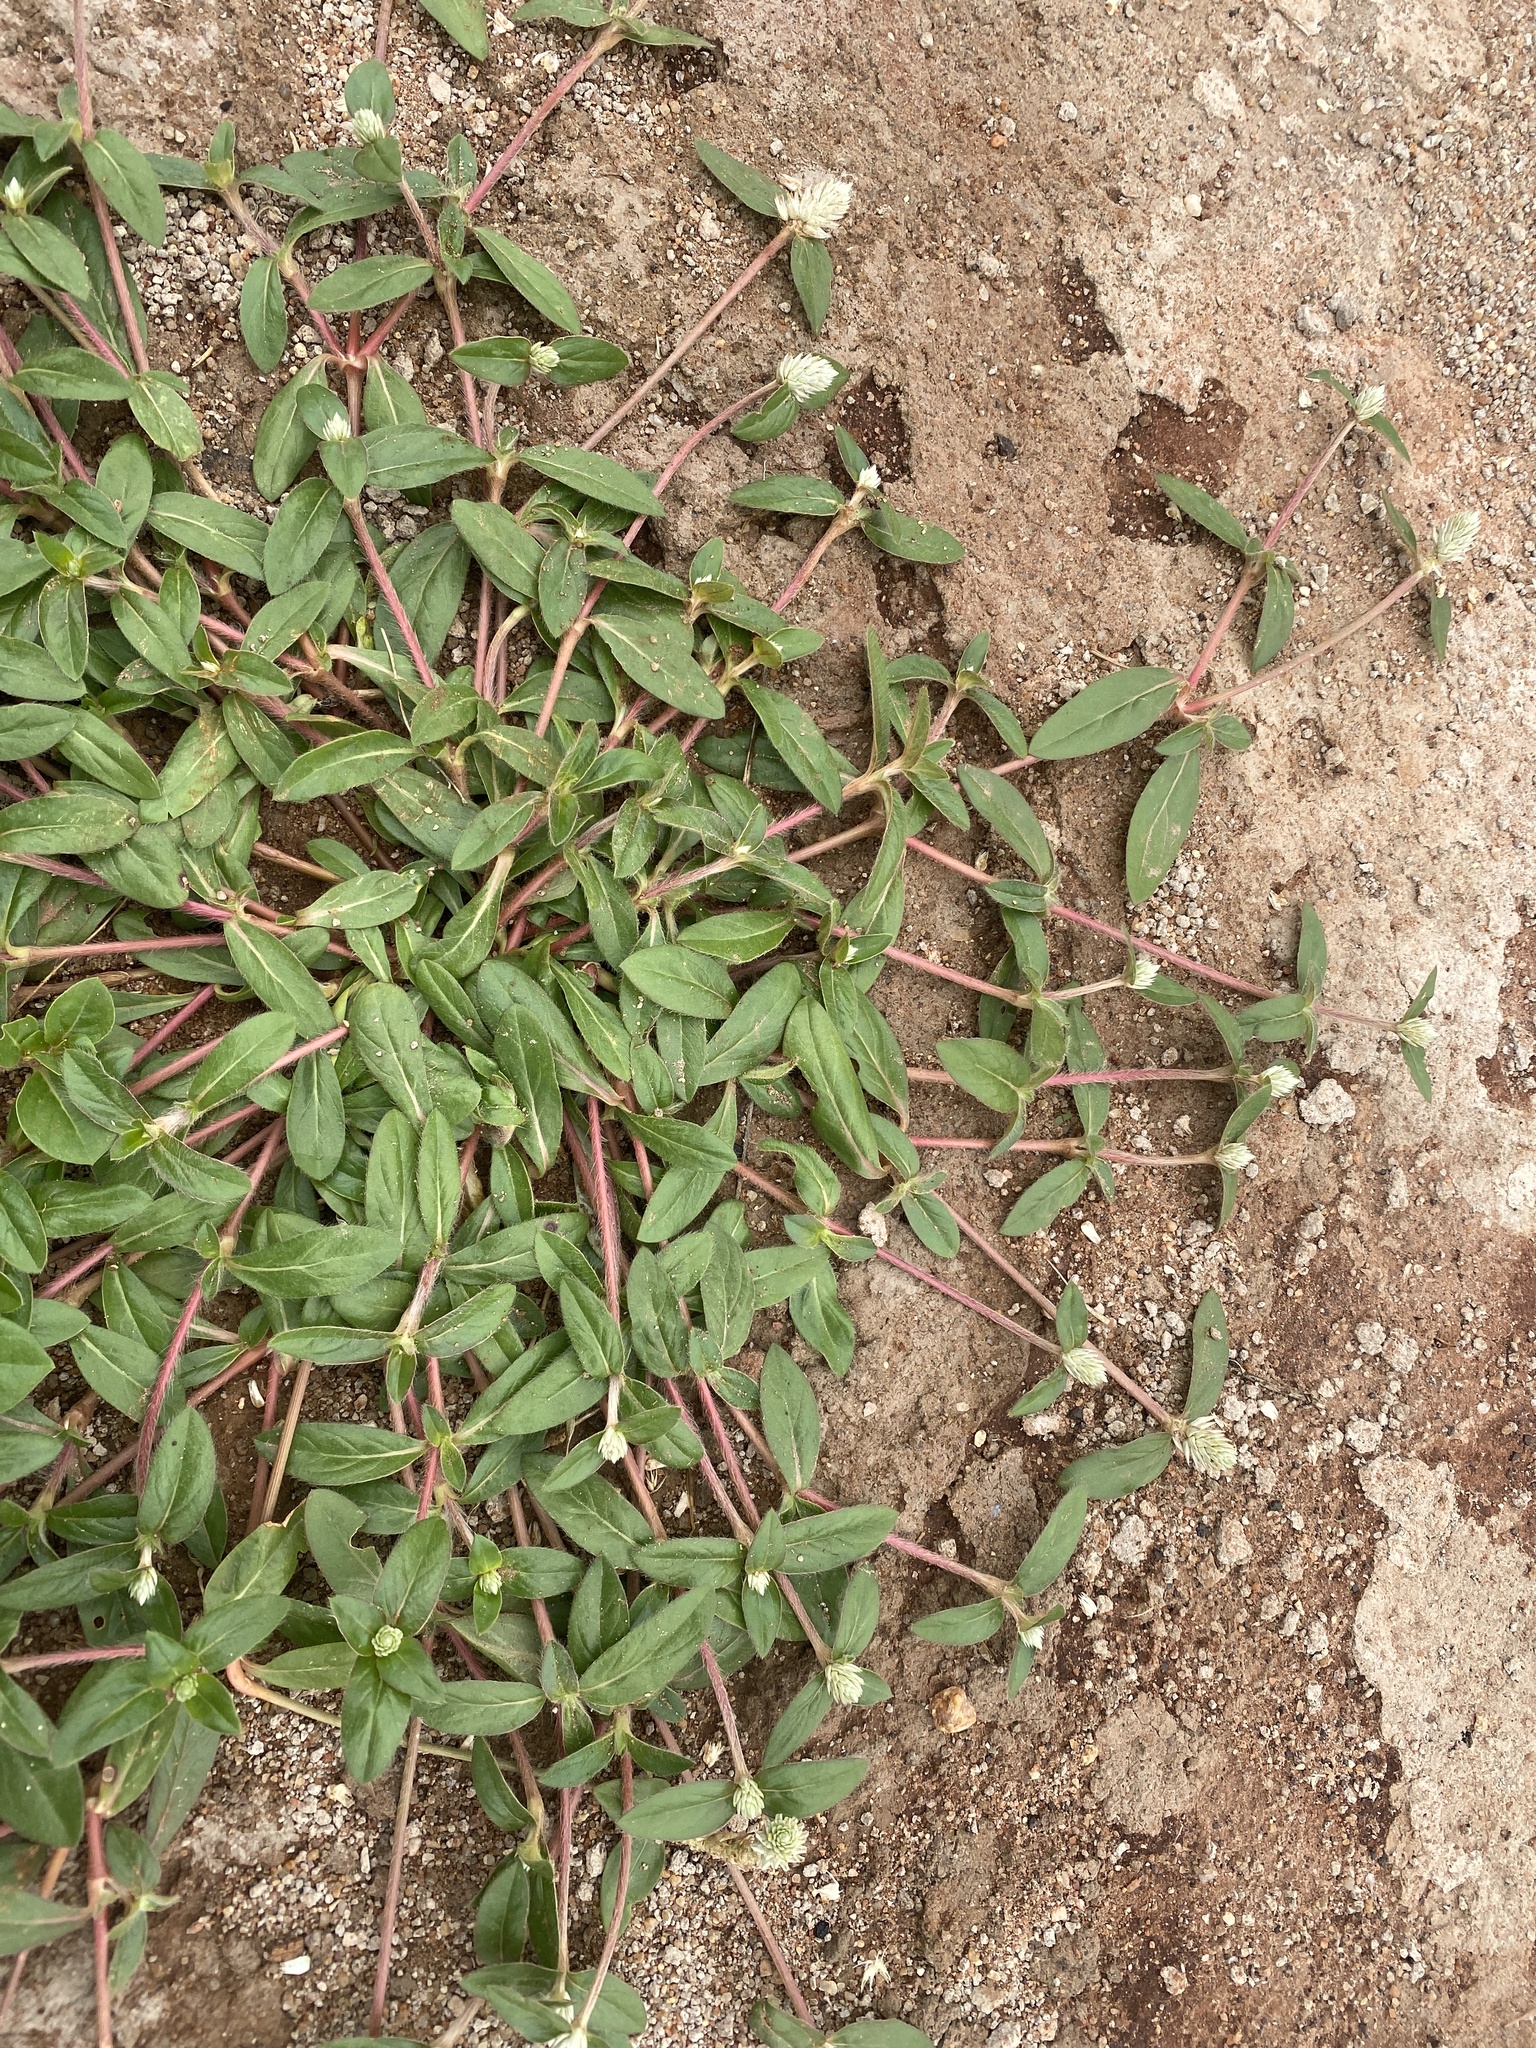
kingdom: Plantae
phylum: Tracheophyta
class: Magnoliopsida
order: Caryophyllales
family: Amaranthaceae
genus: Gomphrena
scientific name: Gomphrena celosioides
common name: Gomphrena-weed
